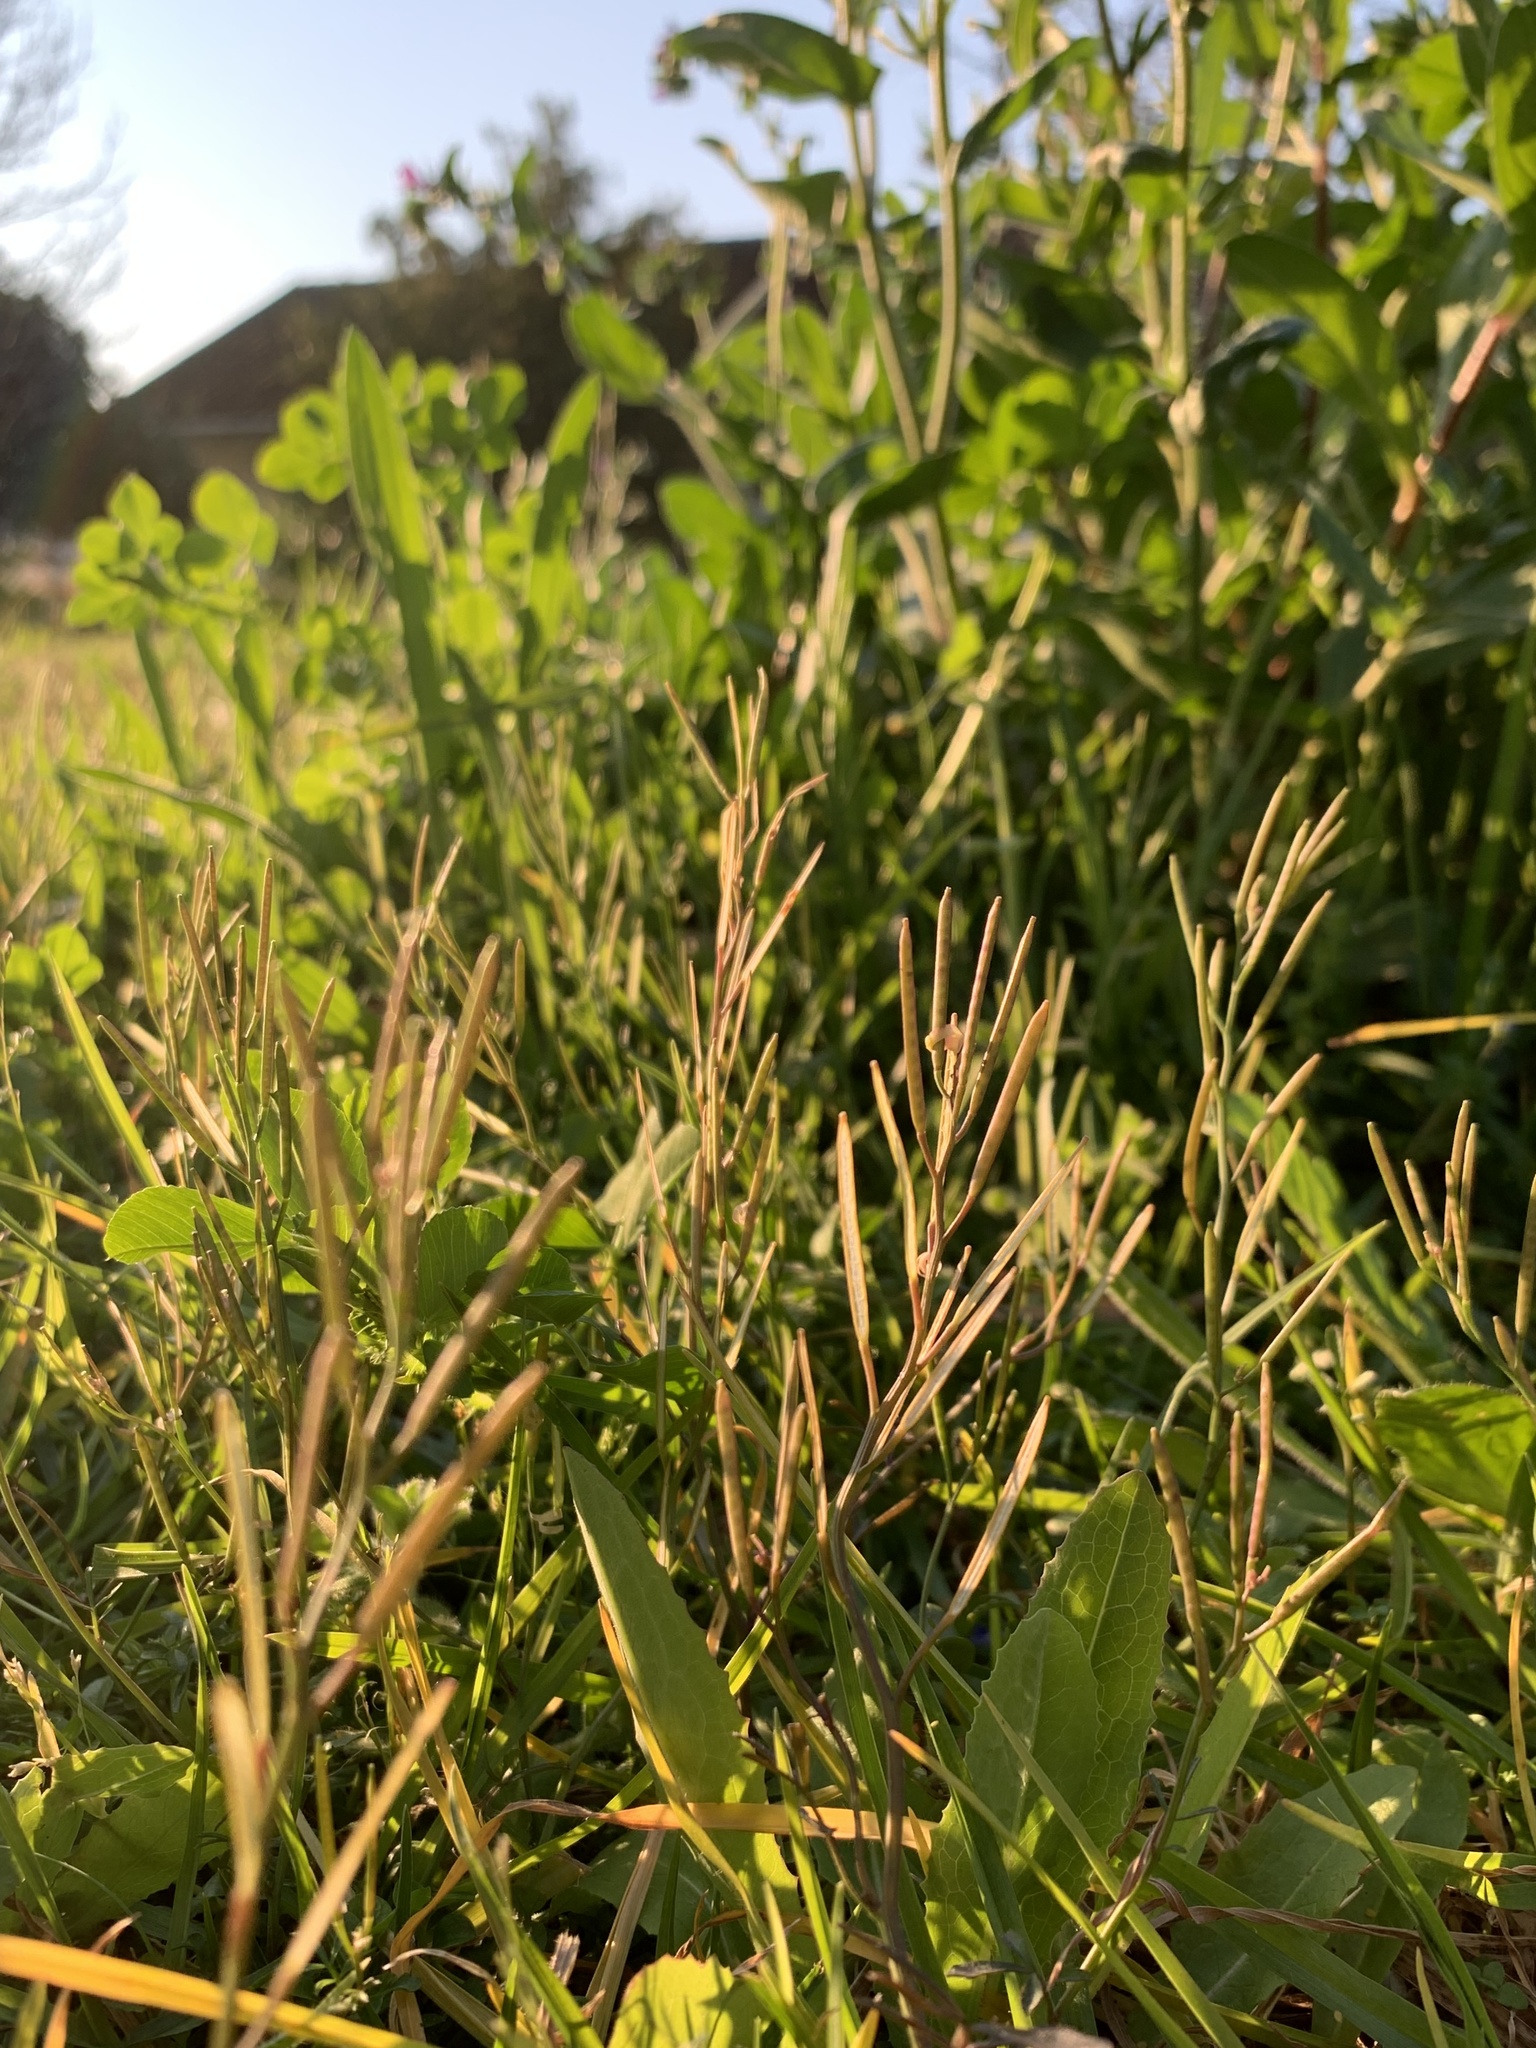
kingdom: Plantae
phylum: Tracheophyta
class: Magnoliopsida
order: Brassicales
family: Brassicaceae
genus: Cardamine
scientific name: Cardamine hirsuta
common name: Hairy bittercress
